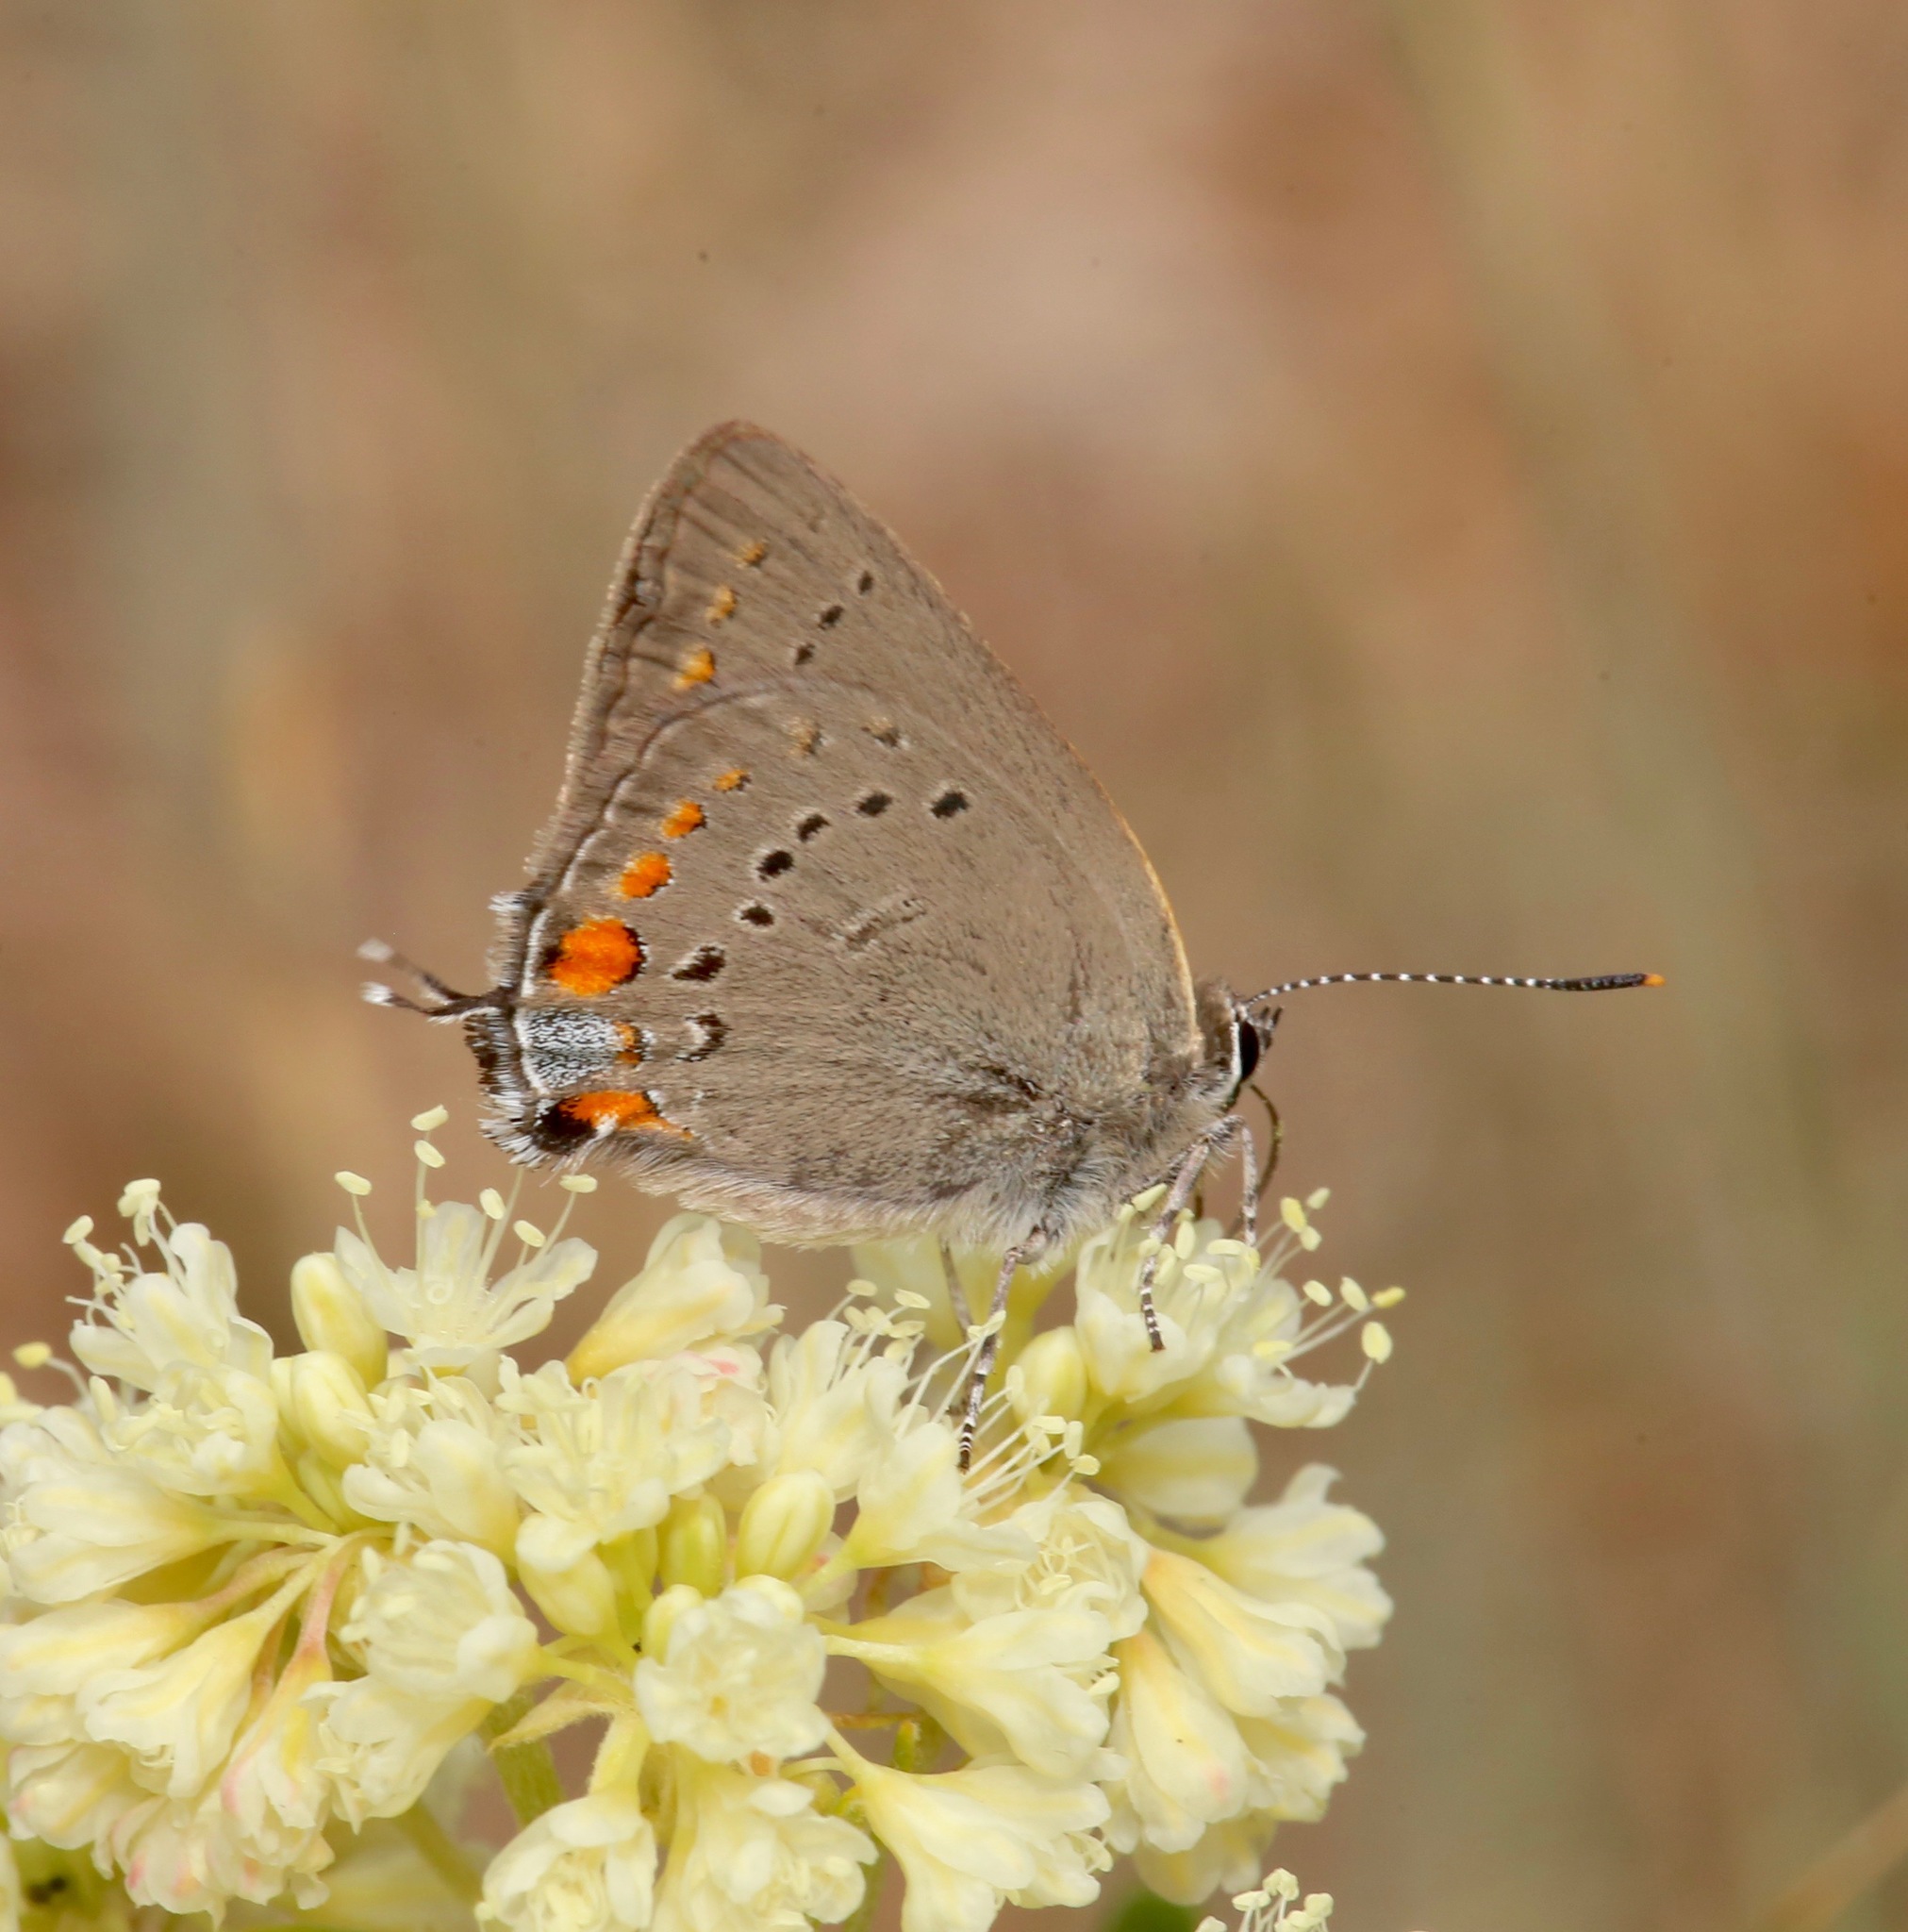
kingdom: Animalia
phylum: Arthropoda
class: Insecta
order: Lepidoptera
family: Lycaenidae
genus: Strymon
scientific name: Strymon acadica
